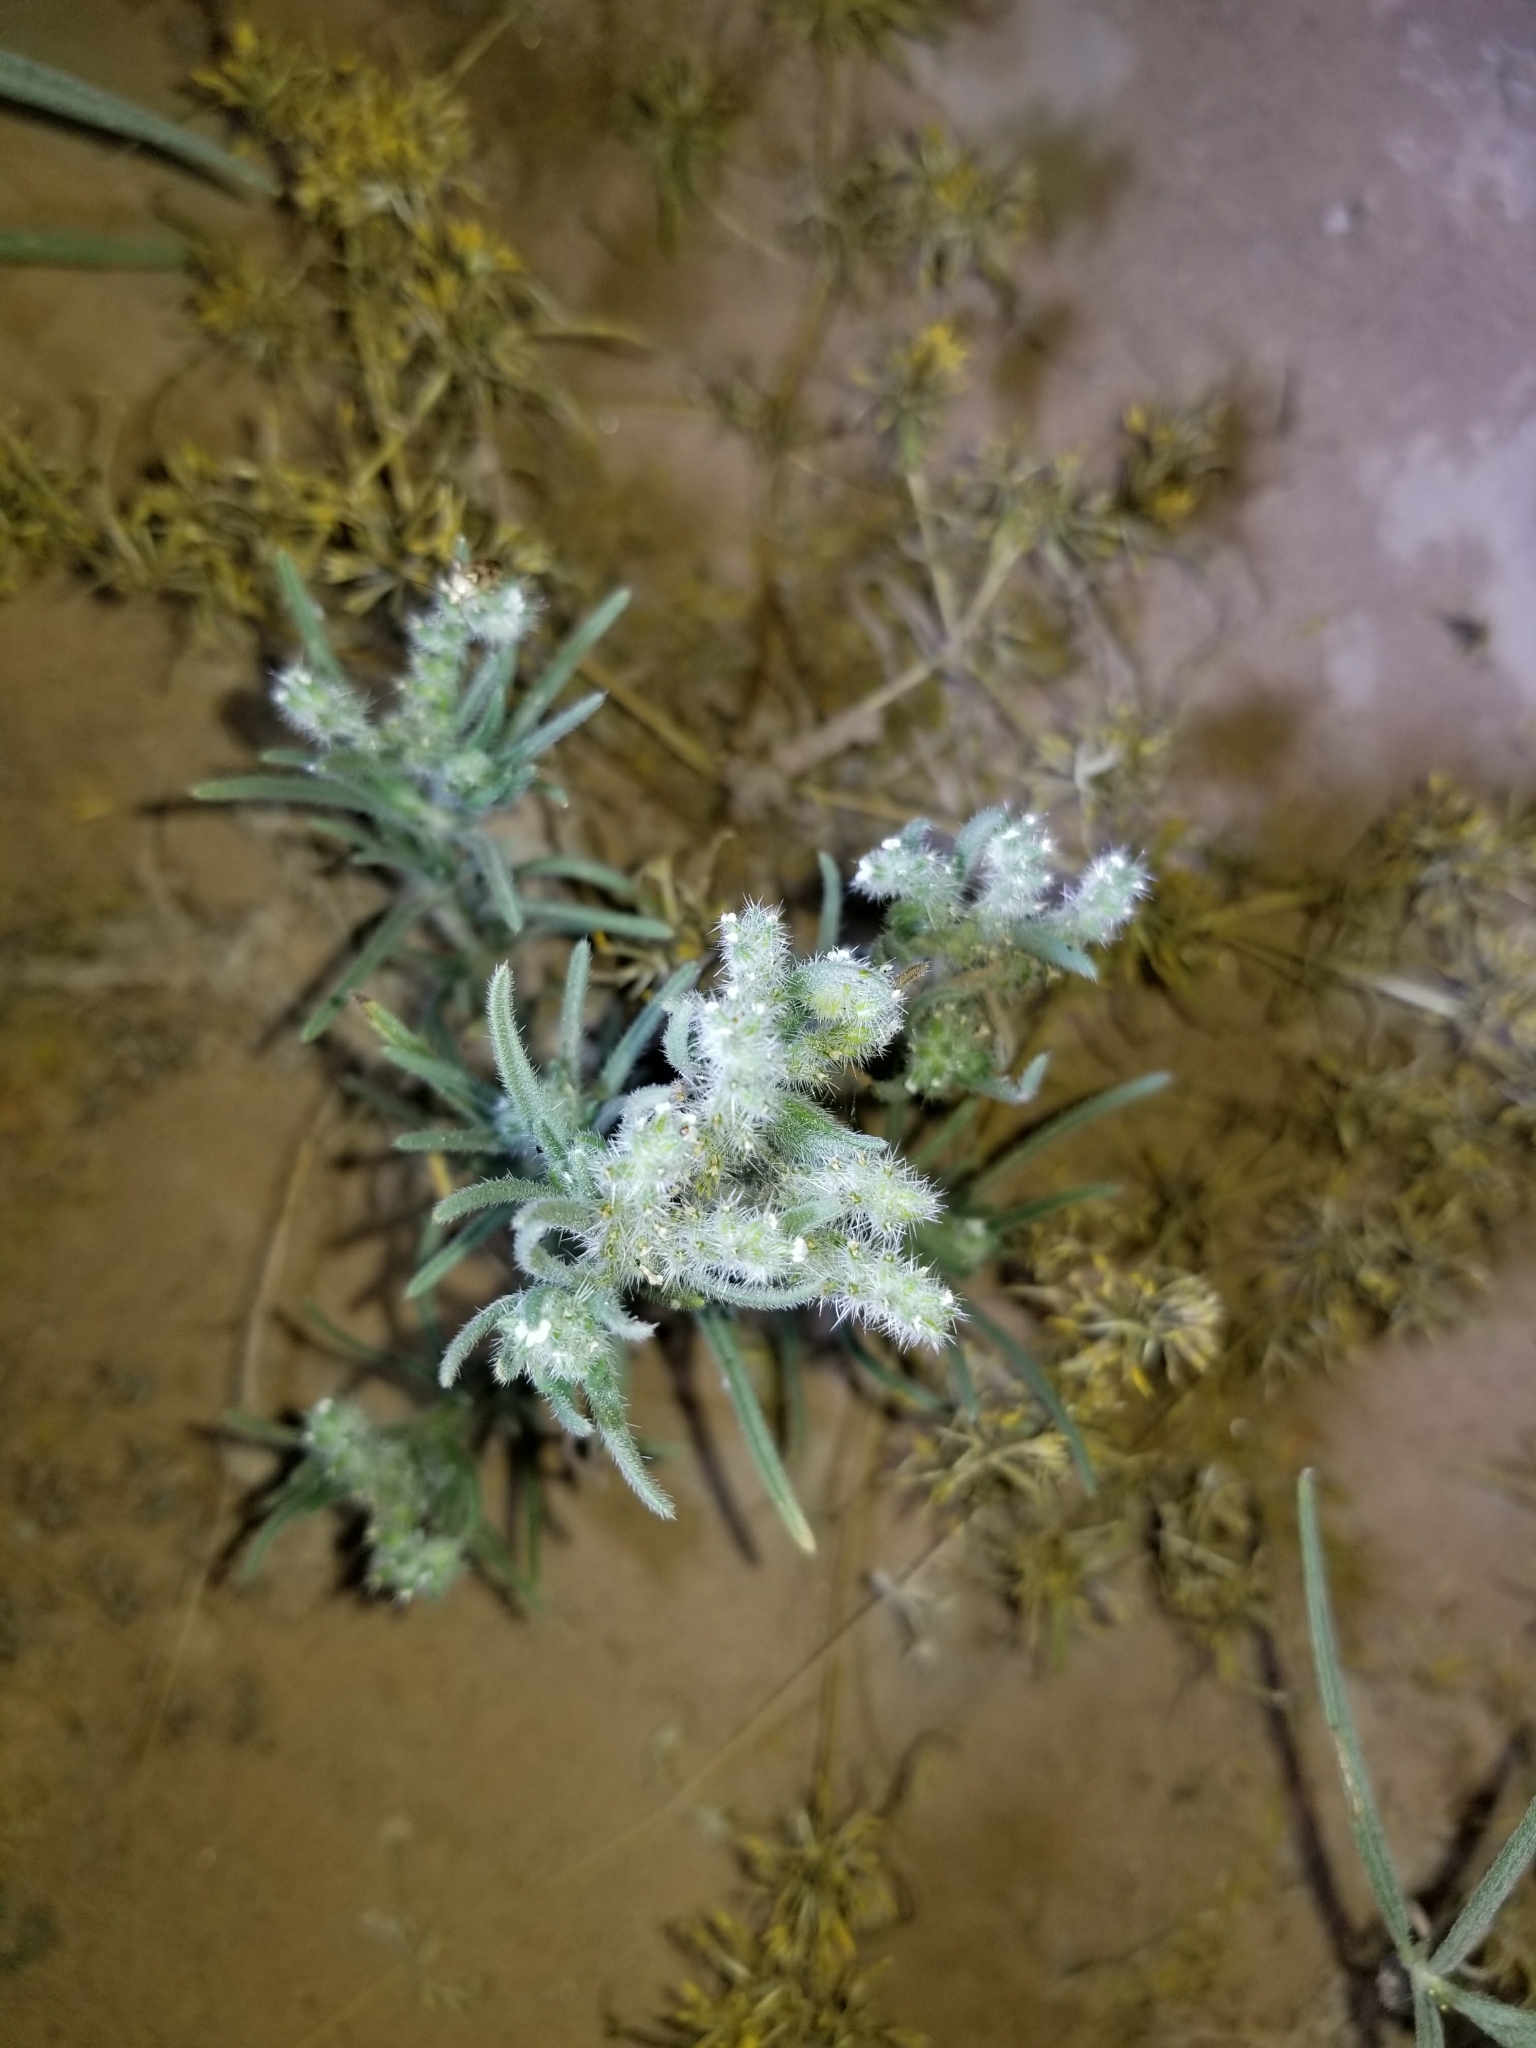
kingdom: Plantae
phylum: Tracheophyta
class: Magnoliopsida
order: Boraginales
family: Boraginaceae
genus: Johnstonella
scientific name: Johnstonella angustifolia
